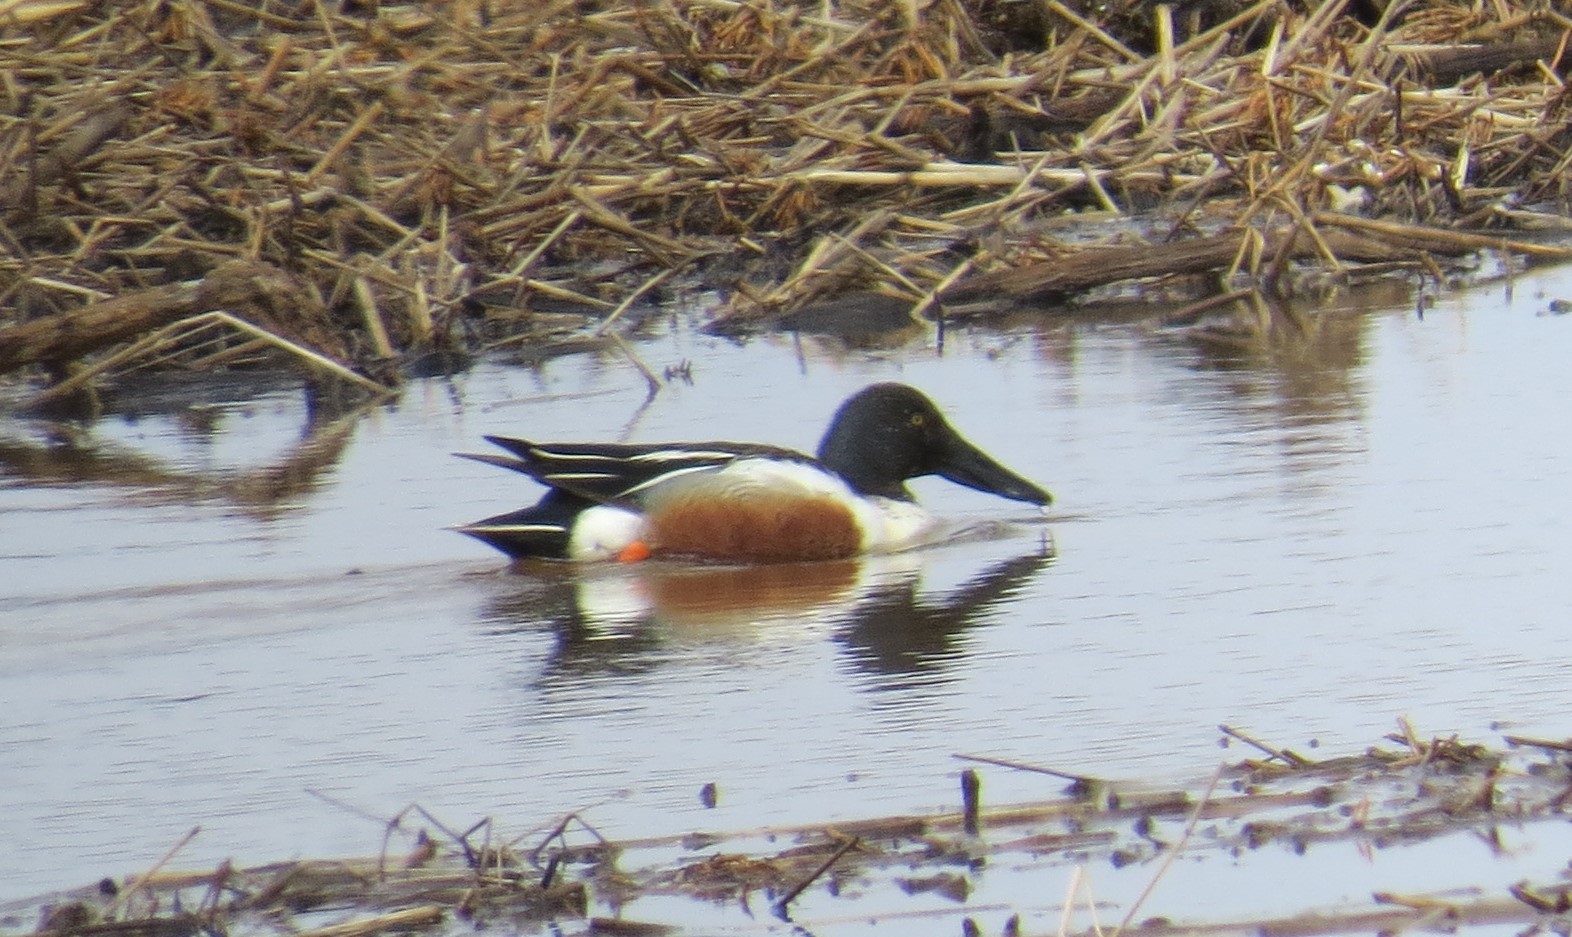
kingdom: Animalia
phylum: Chordata
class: Aves
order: Anseriformes
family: Anatidae
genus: Spatula
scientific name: Spatula clypeata
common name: Northern shoveler
